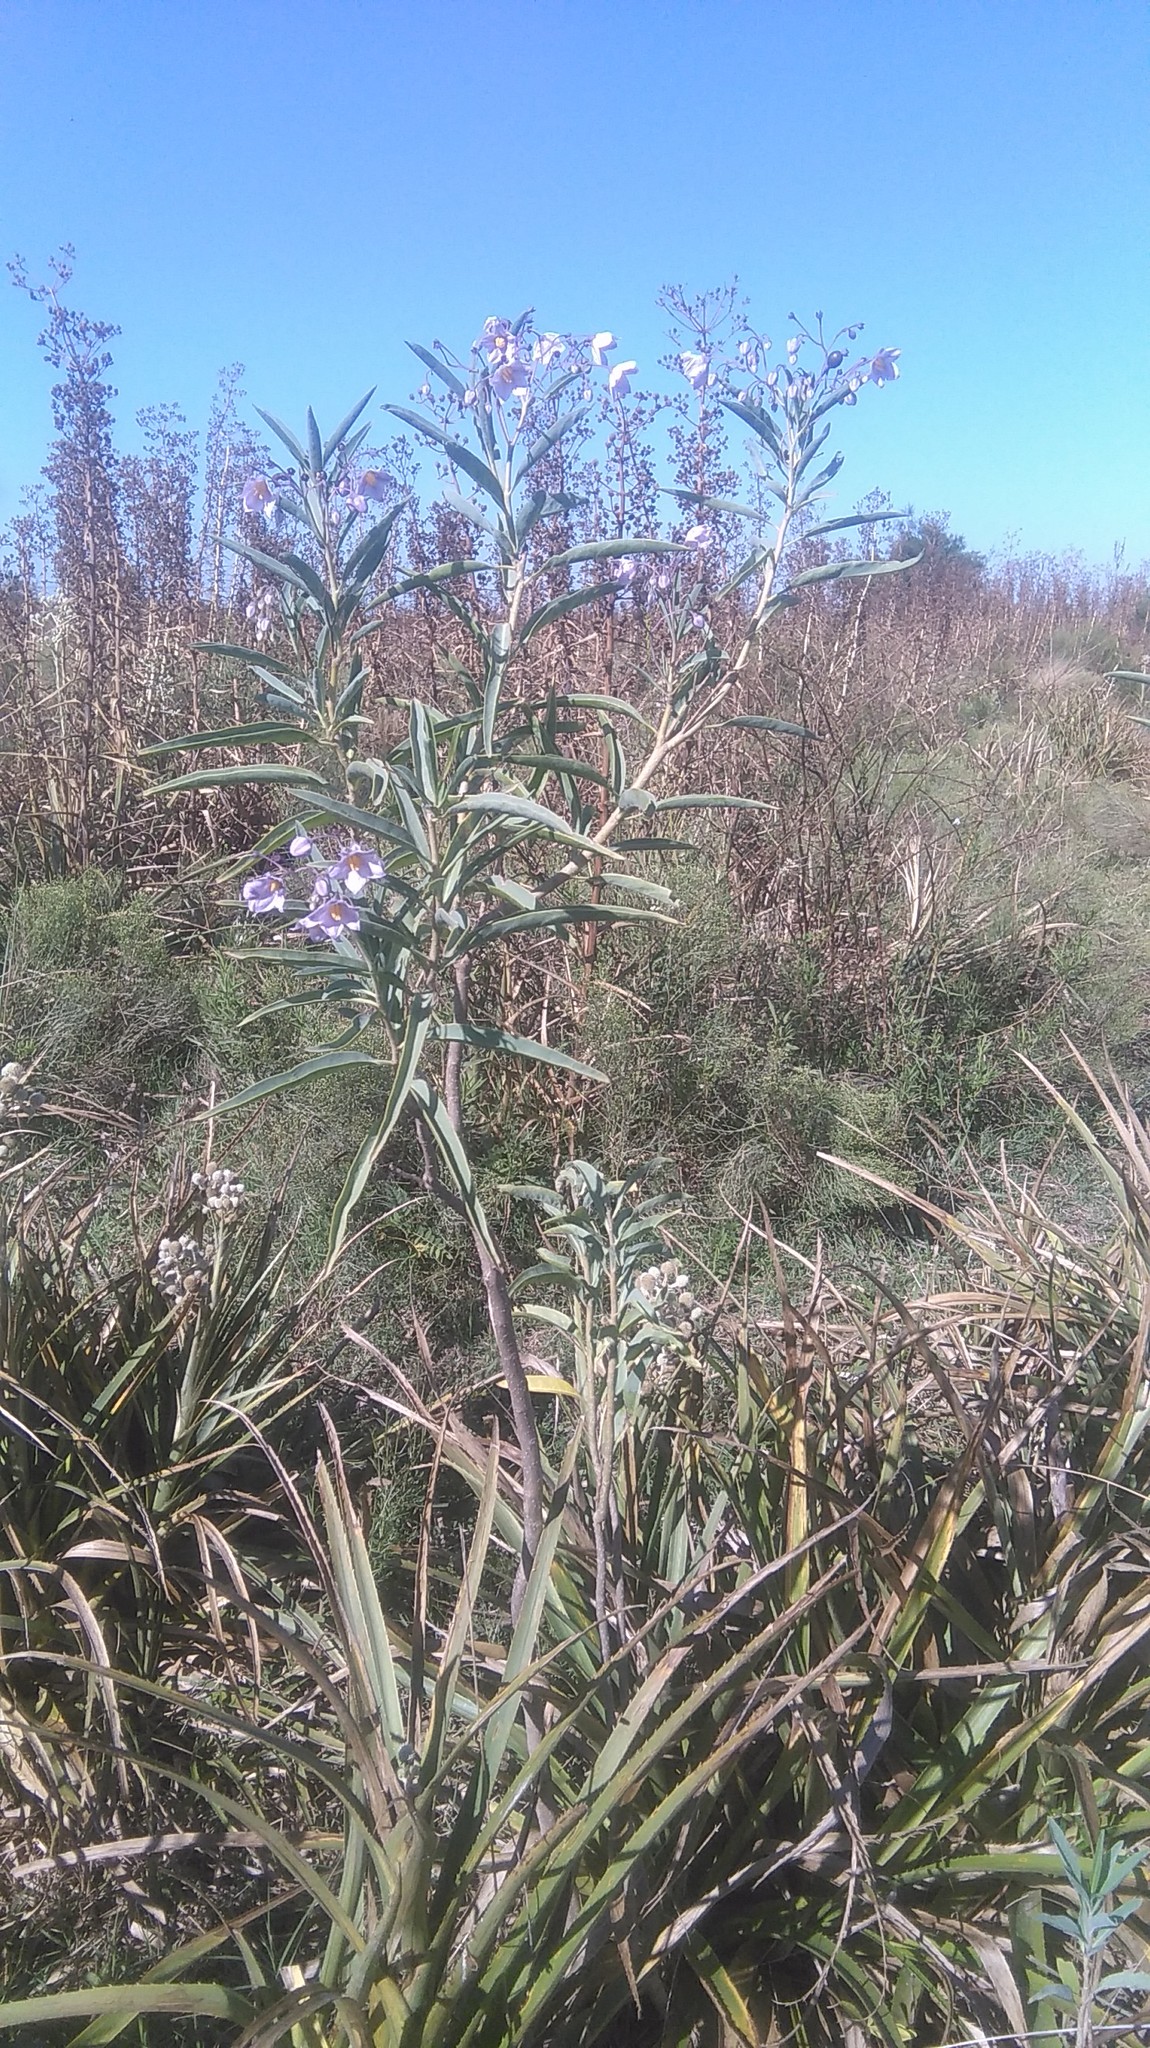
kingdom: Plantae
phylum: Tracheophyta
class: Magnoliopsida
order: Solanales
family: Solanaceae
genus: Solanum
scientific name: Solanum glaucophyllum
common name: Waxyleaf nightshade
